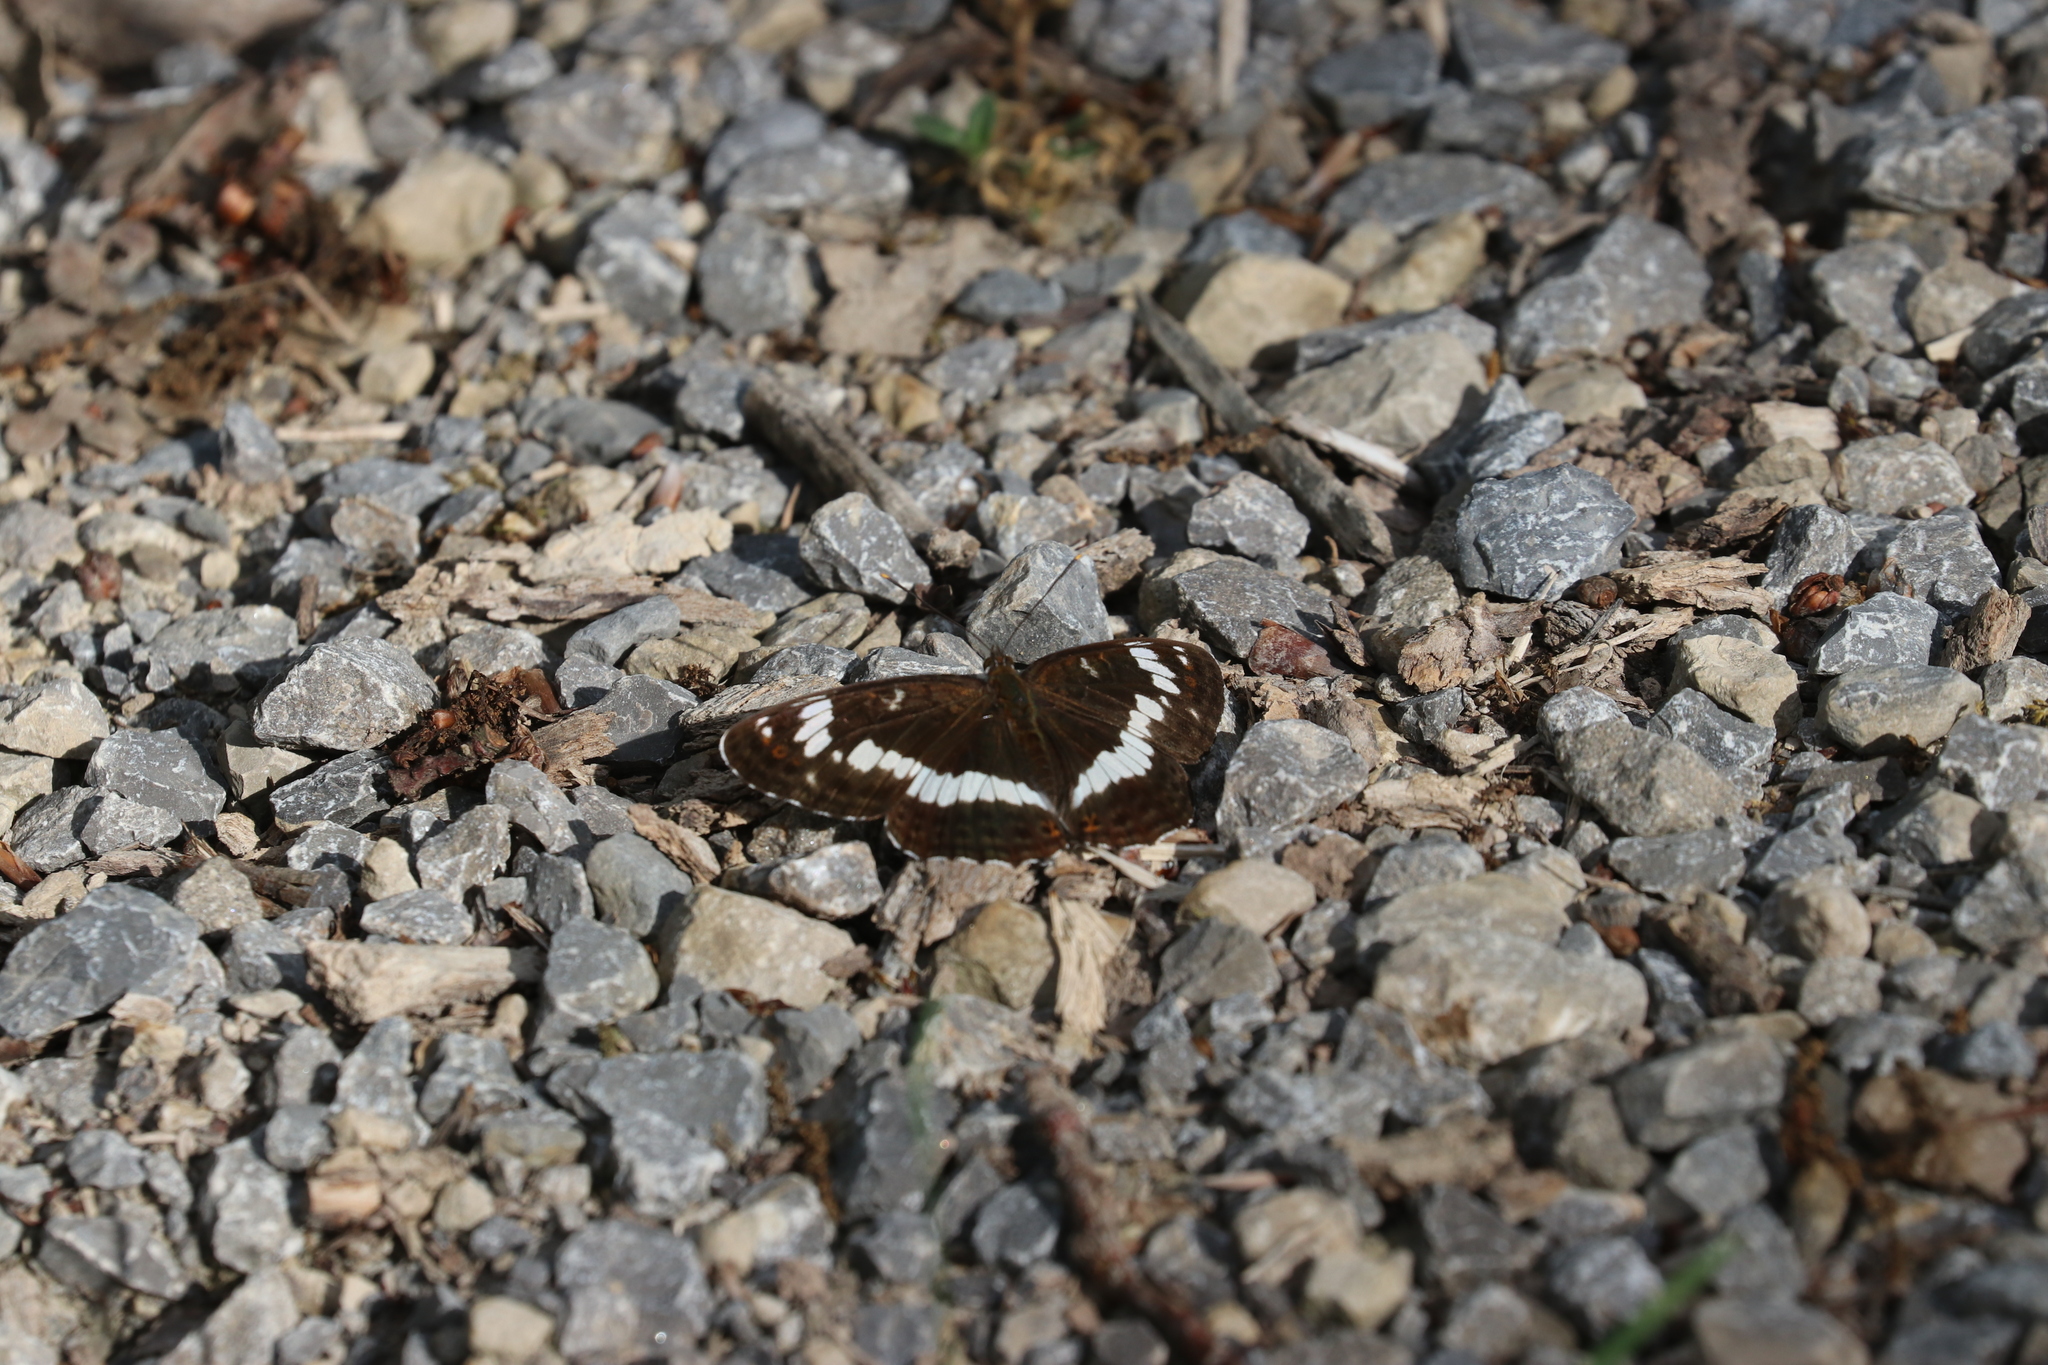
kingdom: Animalia
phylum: Arthropoda
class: Insecta
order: Lepidoptera
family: Nymphalidae
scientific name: Nymphalidae
